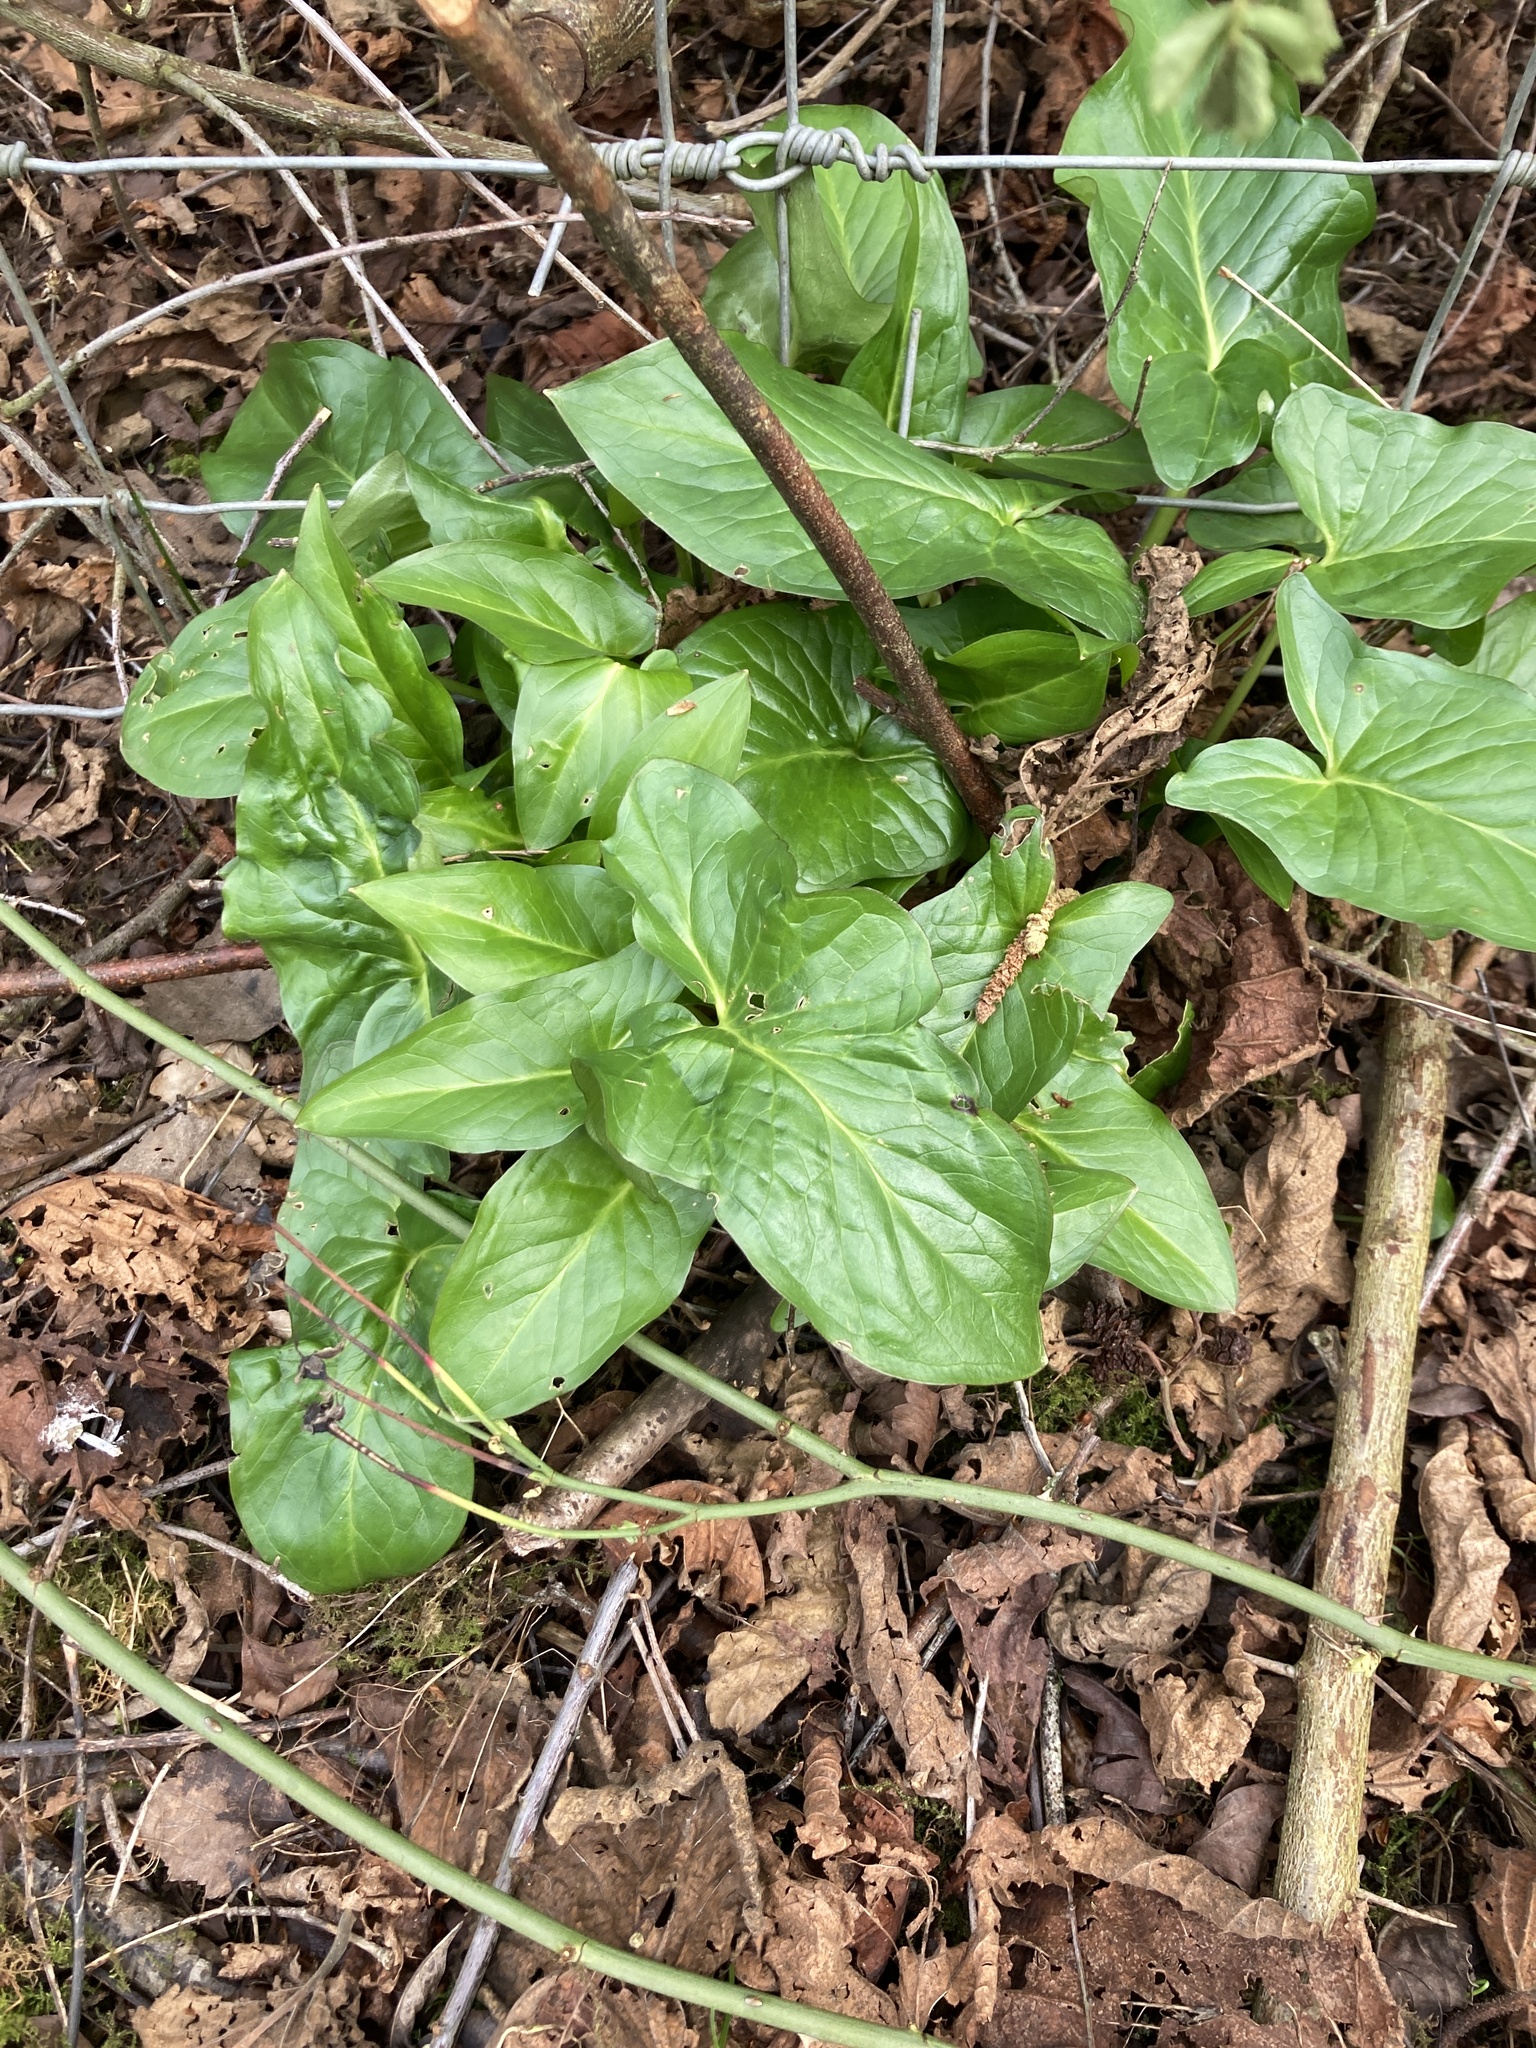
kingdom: Plantae
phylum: Tracheophyta
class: Liliopsida
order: Alismatales
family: Araceae
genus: Arum
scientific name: Arum maculatum
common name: Lords-and-ladies
